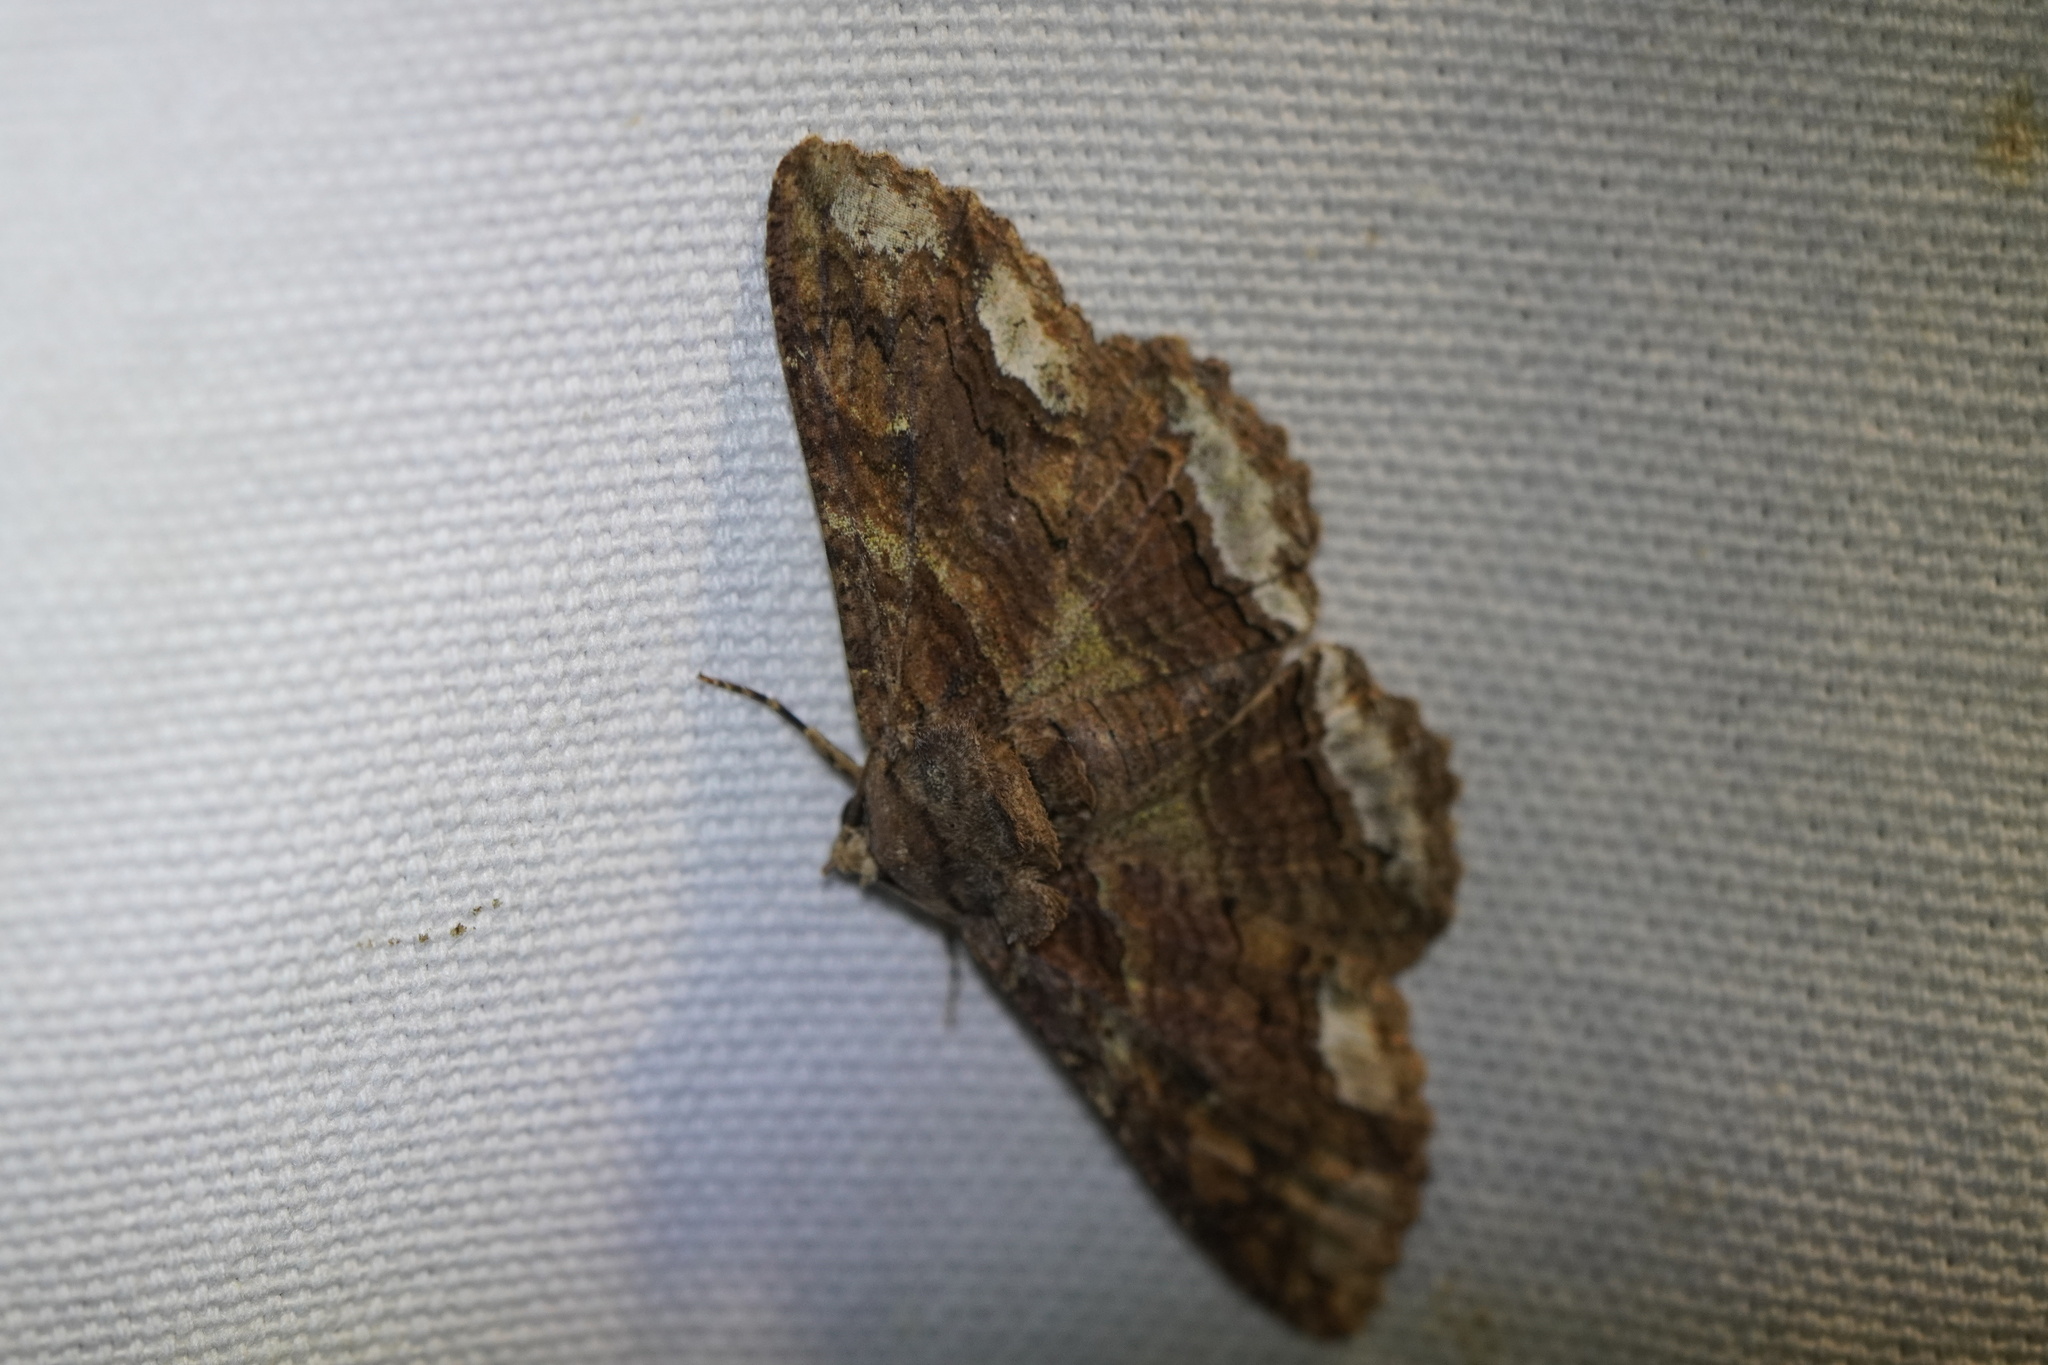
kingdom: Animalia
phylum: Arthropoda
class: Insecta
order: Lepidoptera
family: Erebidae
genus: Zale
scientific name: Zale lunata
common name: Lunate zale moth
